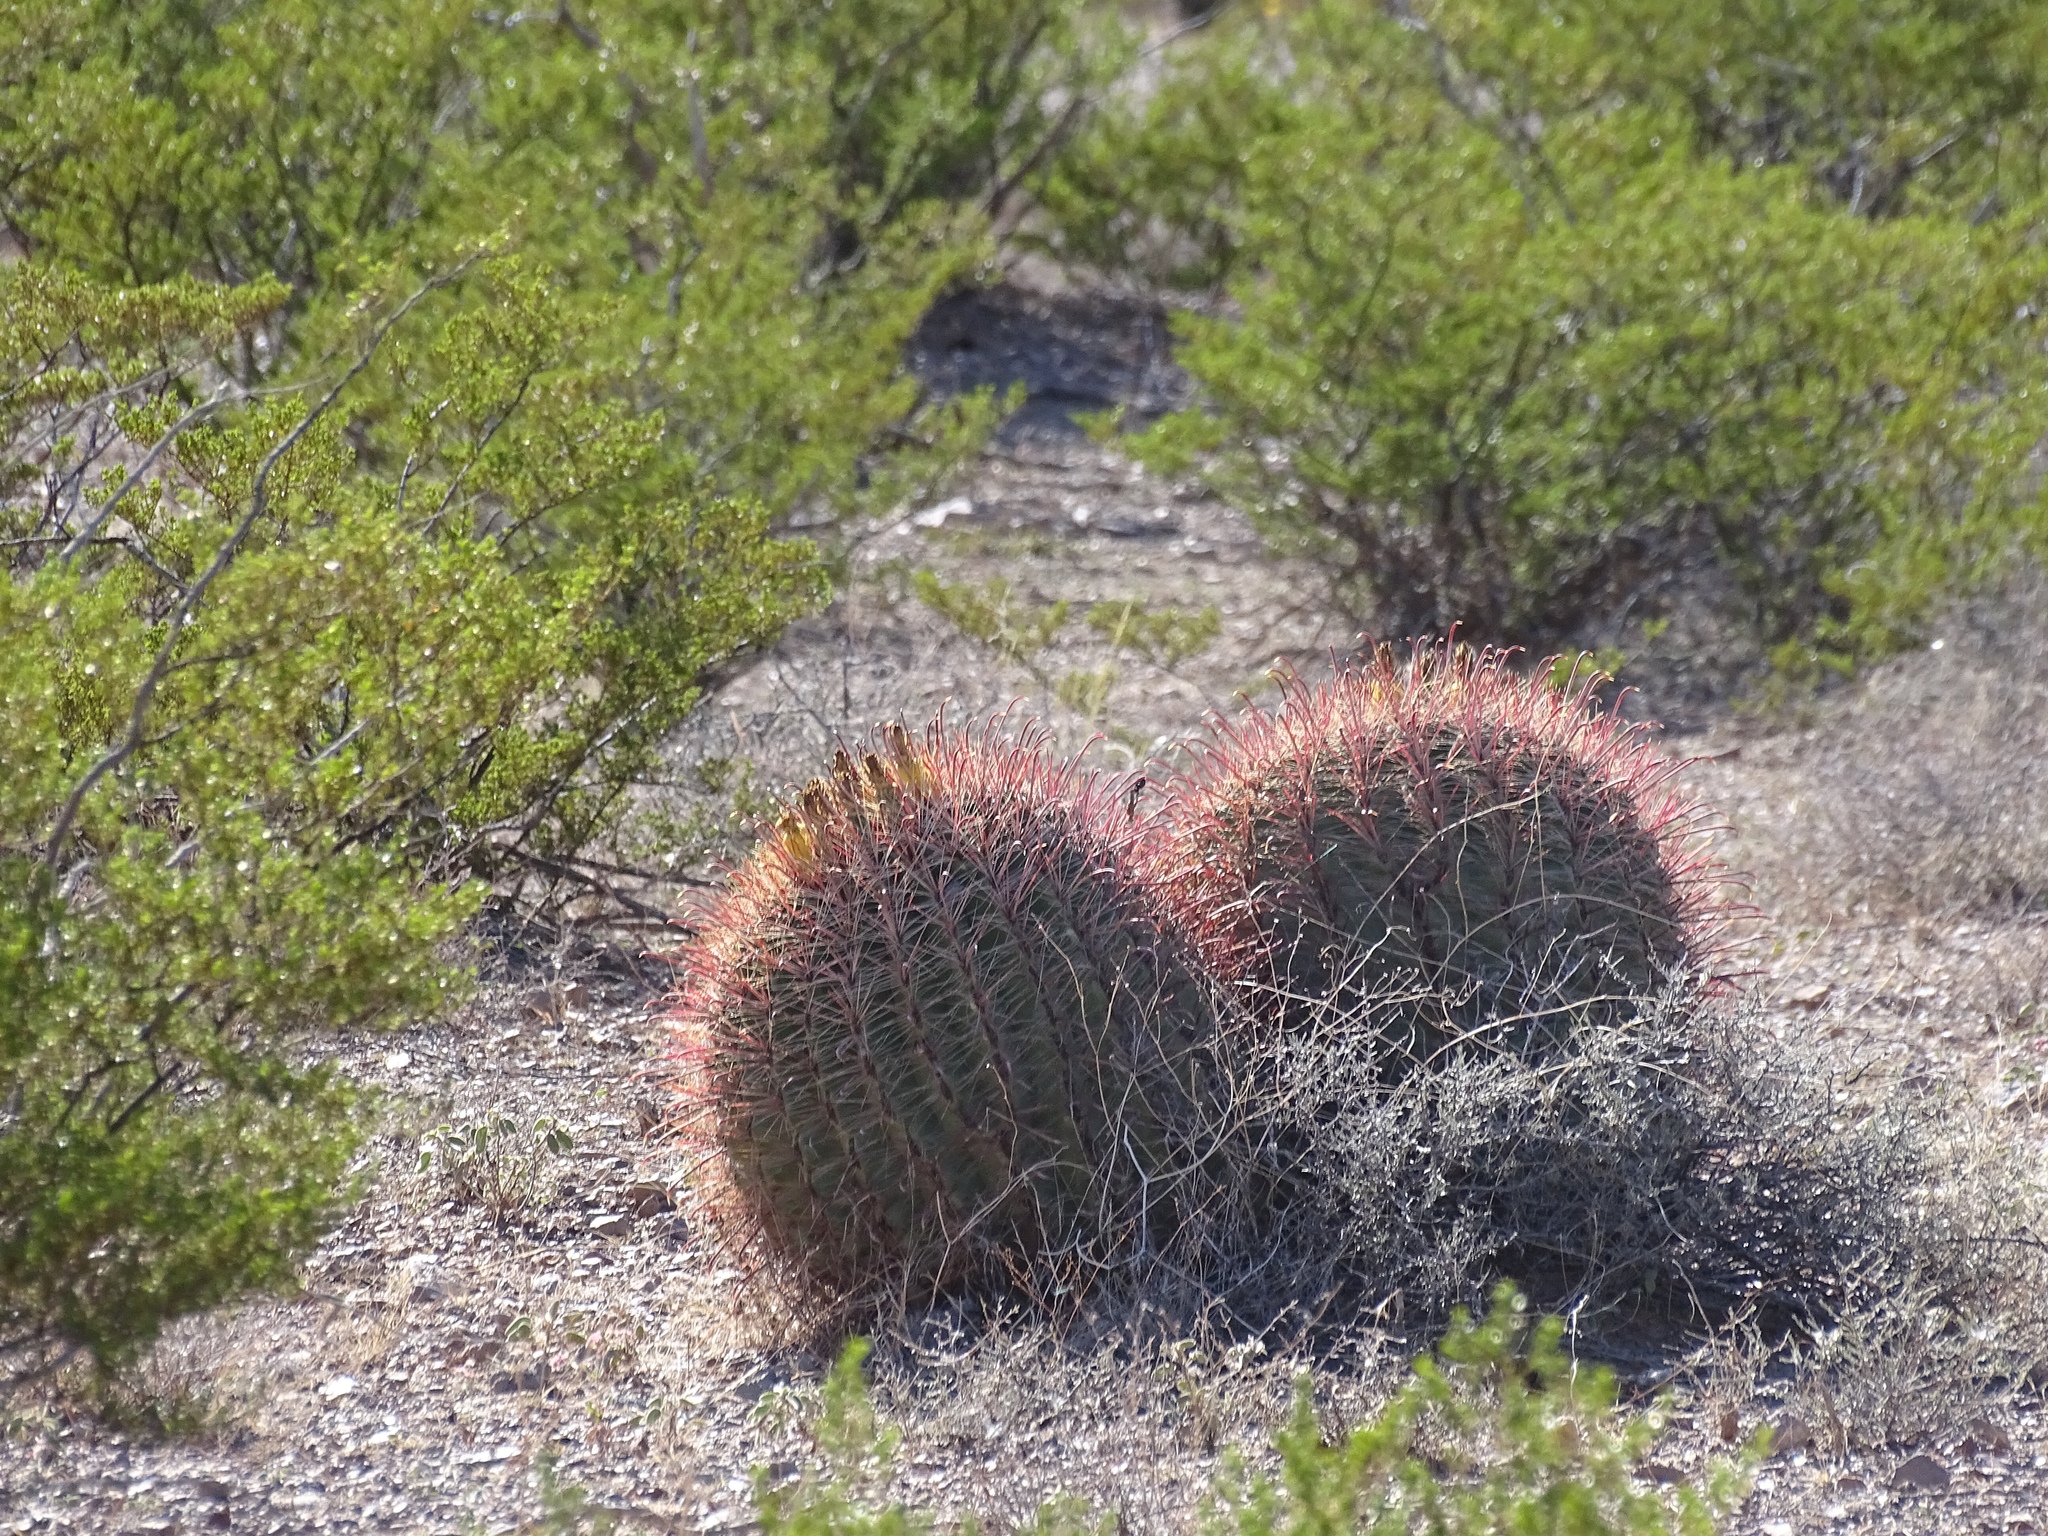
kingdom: Plantae
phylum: Tracheophyta
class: Magnoliopsida
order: Caryophyllales
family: Cactaceae
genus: Ferocactus
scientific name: Ferocactus wislizeni
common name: Candy barrel cactus
